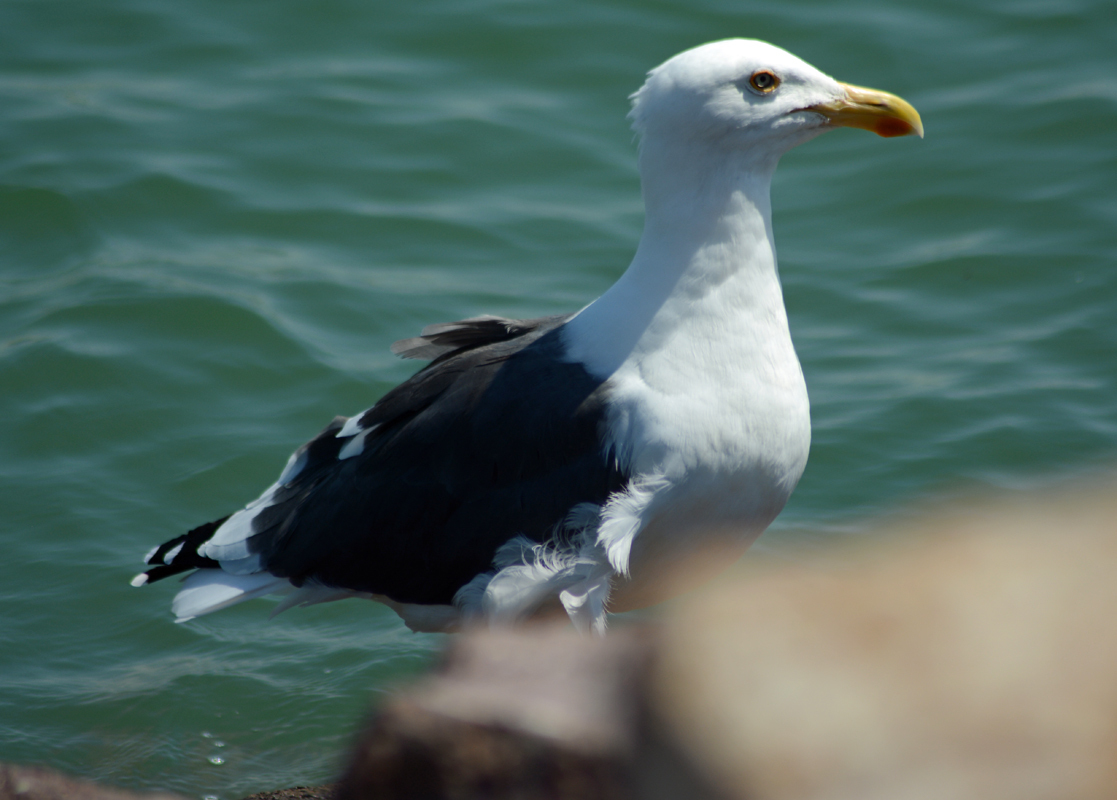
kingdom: Animalia
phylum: Chordata
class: Aves
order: Charadriiformes
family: Laridae
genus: Larus
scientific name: Larus livens
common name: Yellow-footed gull
